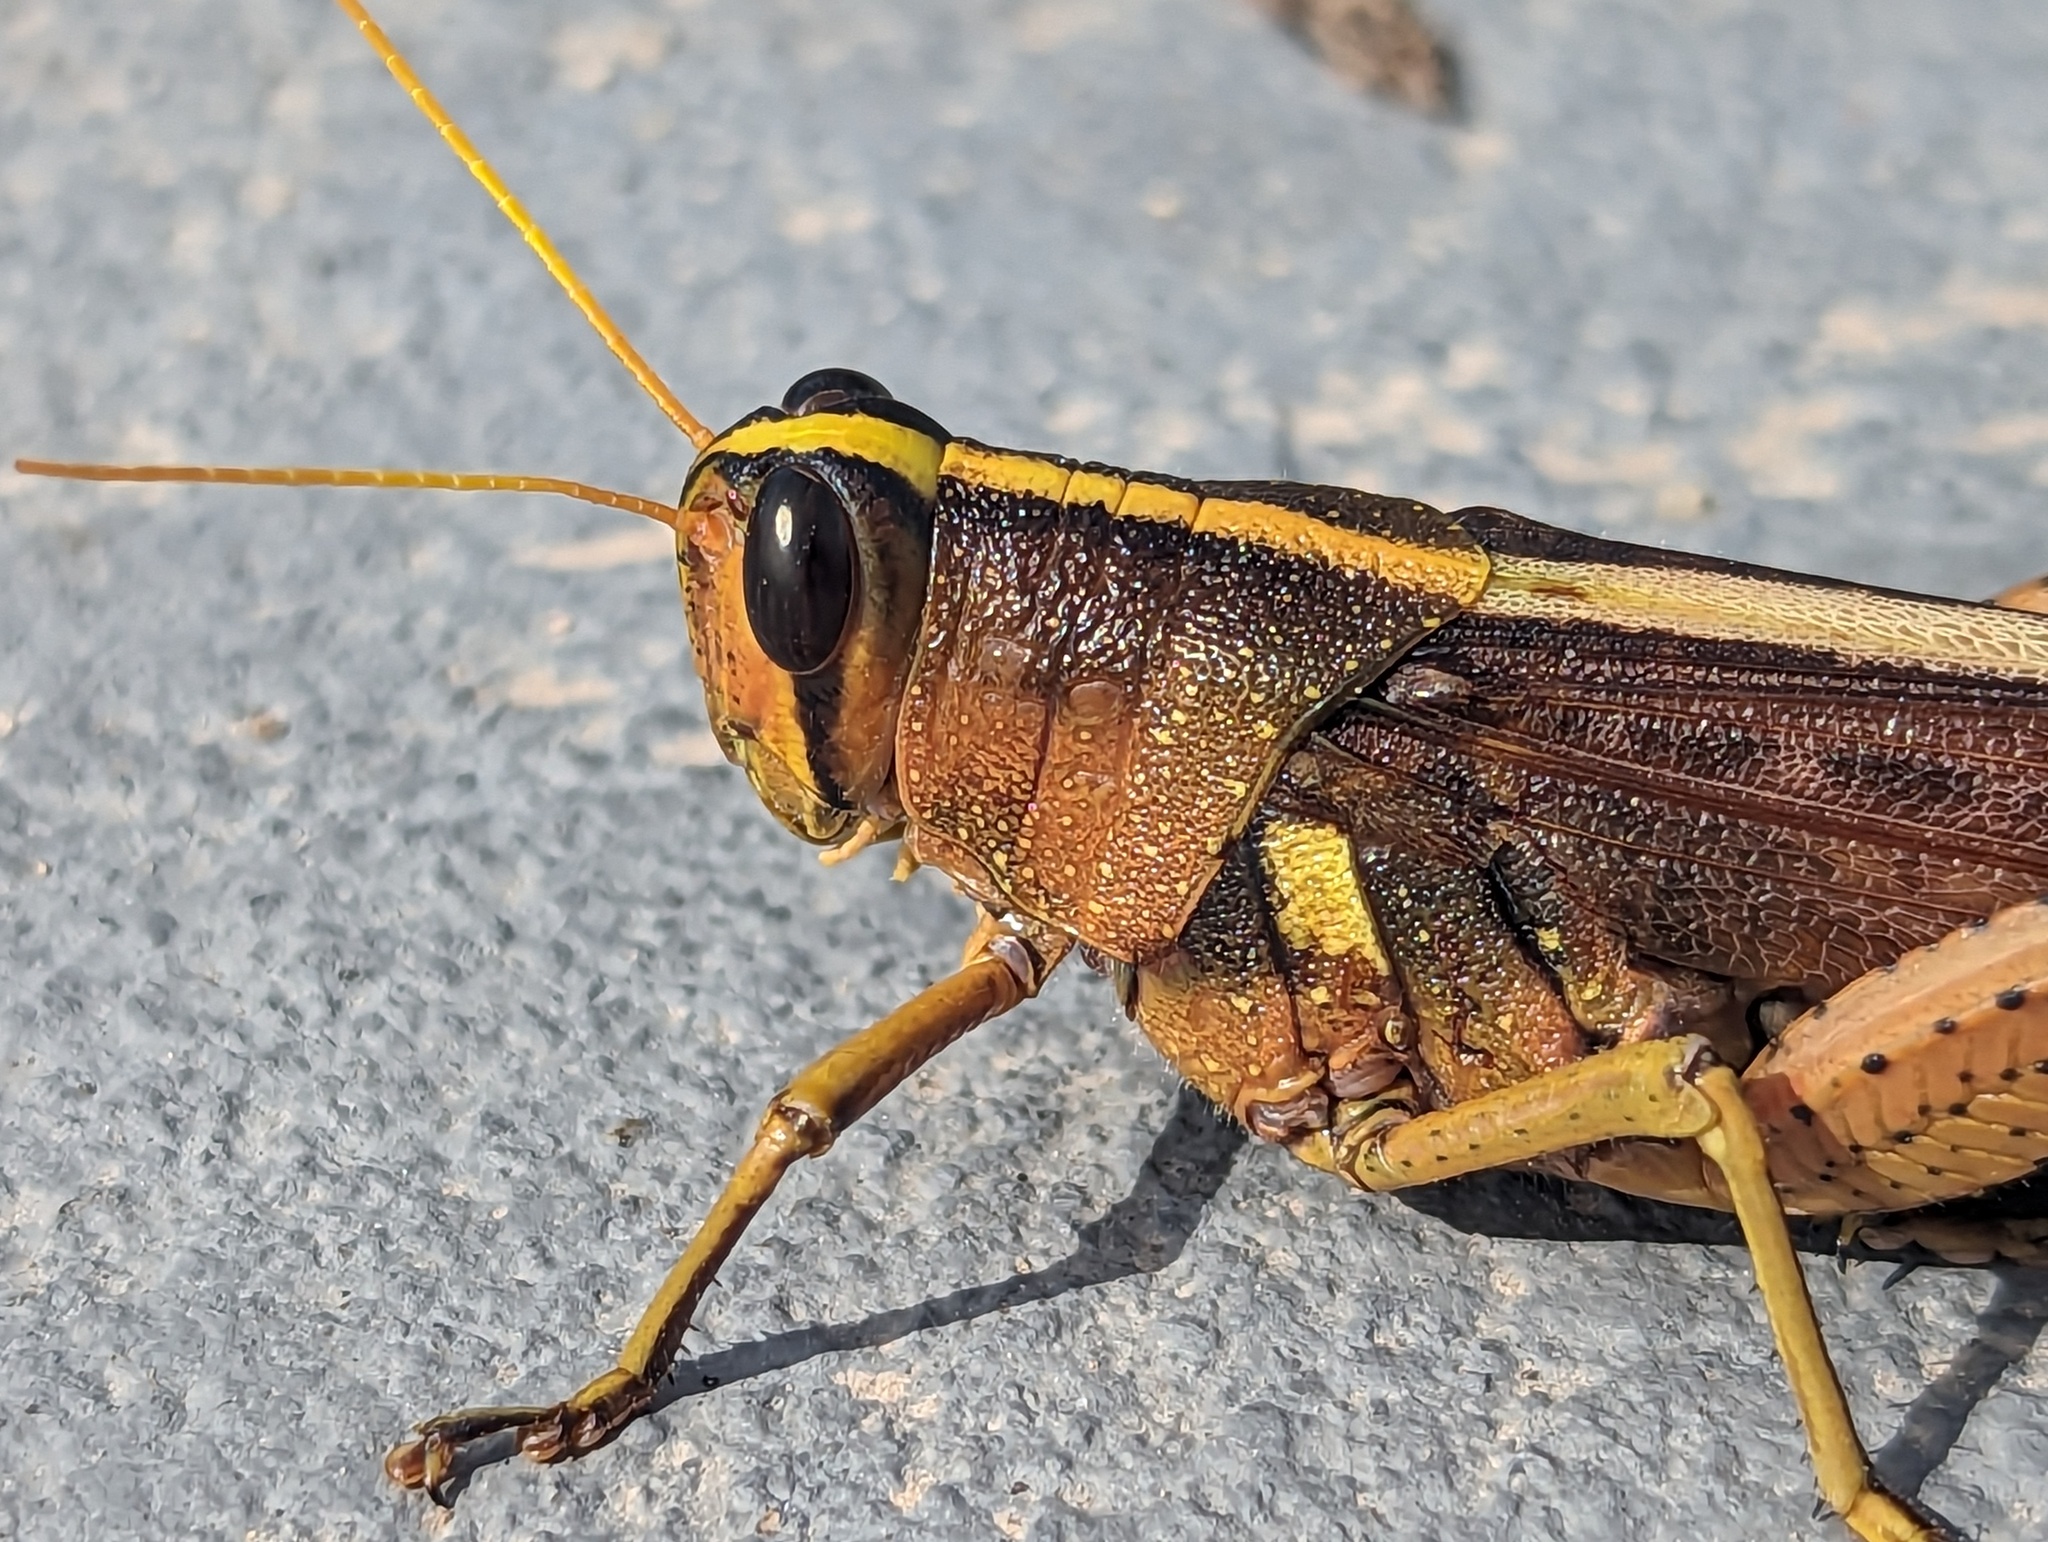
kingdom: Animalia
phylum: Arthropoda
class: Insecta
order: Orthoptera
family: Acrididae
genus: Schistocerca
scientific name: Schistocerca obscura
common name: Obscure bird grasshopper
